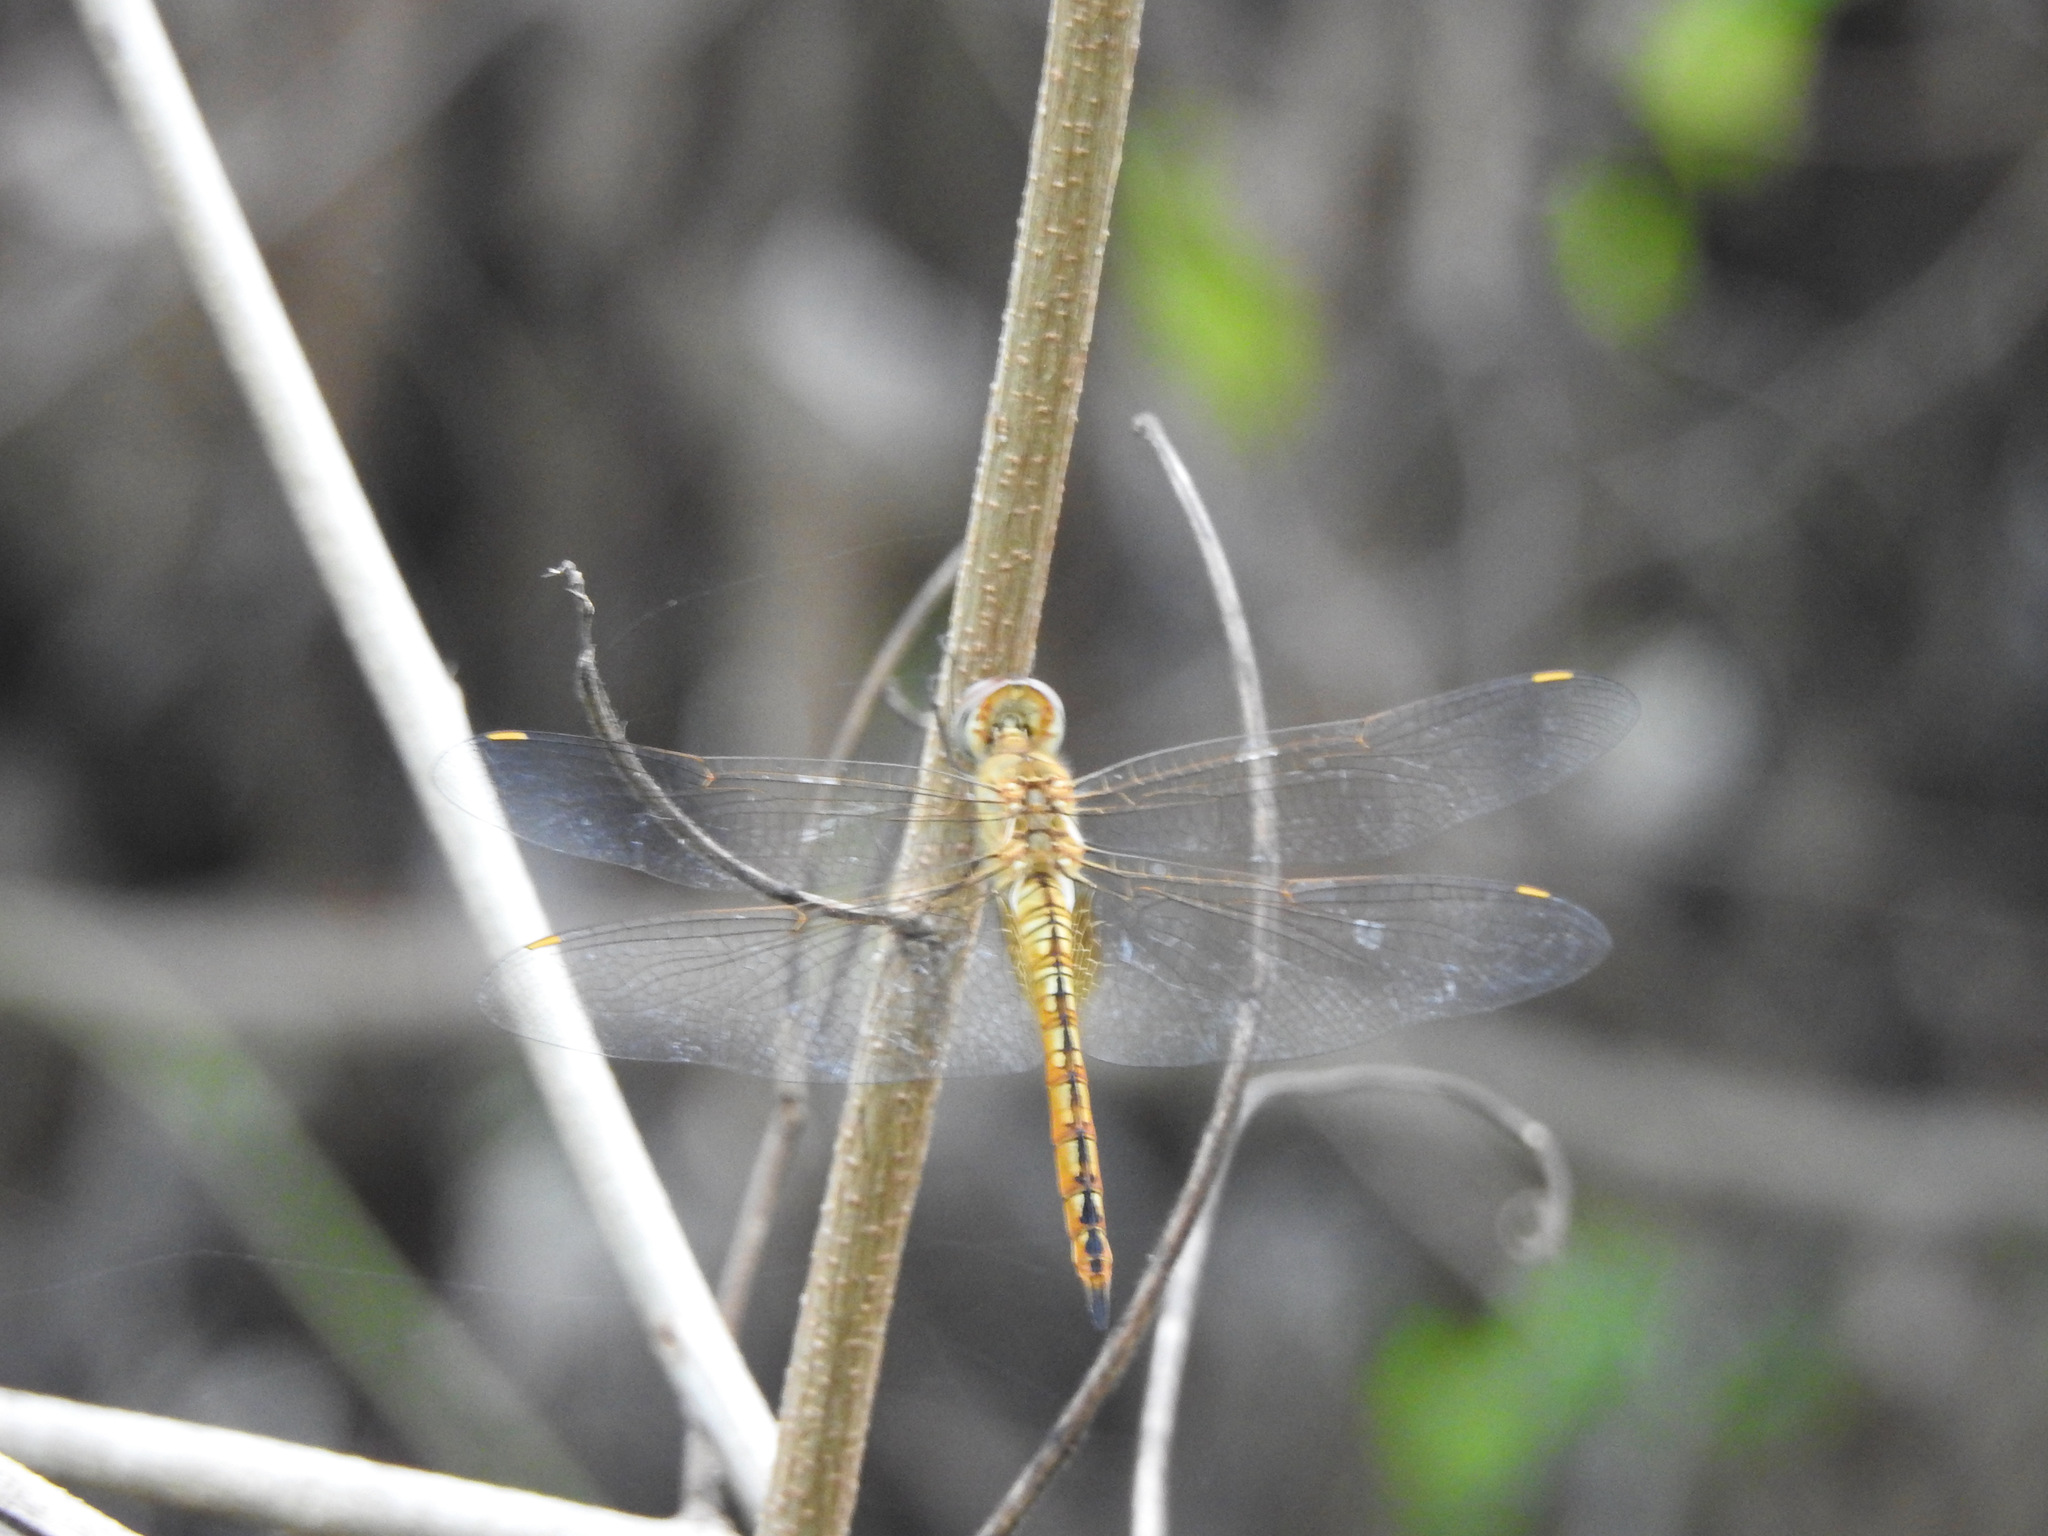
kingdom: Animalia
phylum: Arthropoda
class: Insecta
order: Odonata
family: Libellulidae
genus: Pantala
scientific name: Pantala flavescens
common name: Wandering glider
